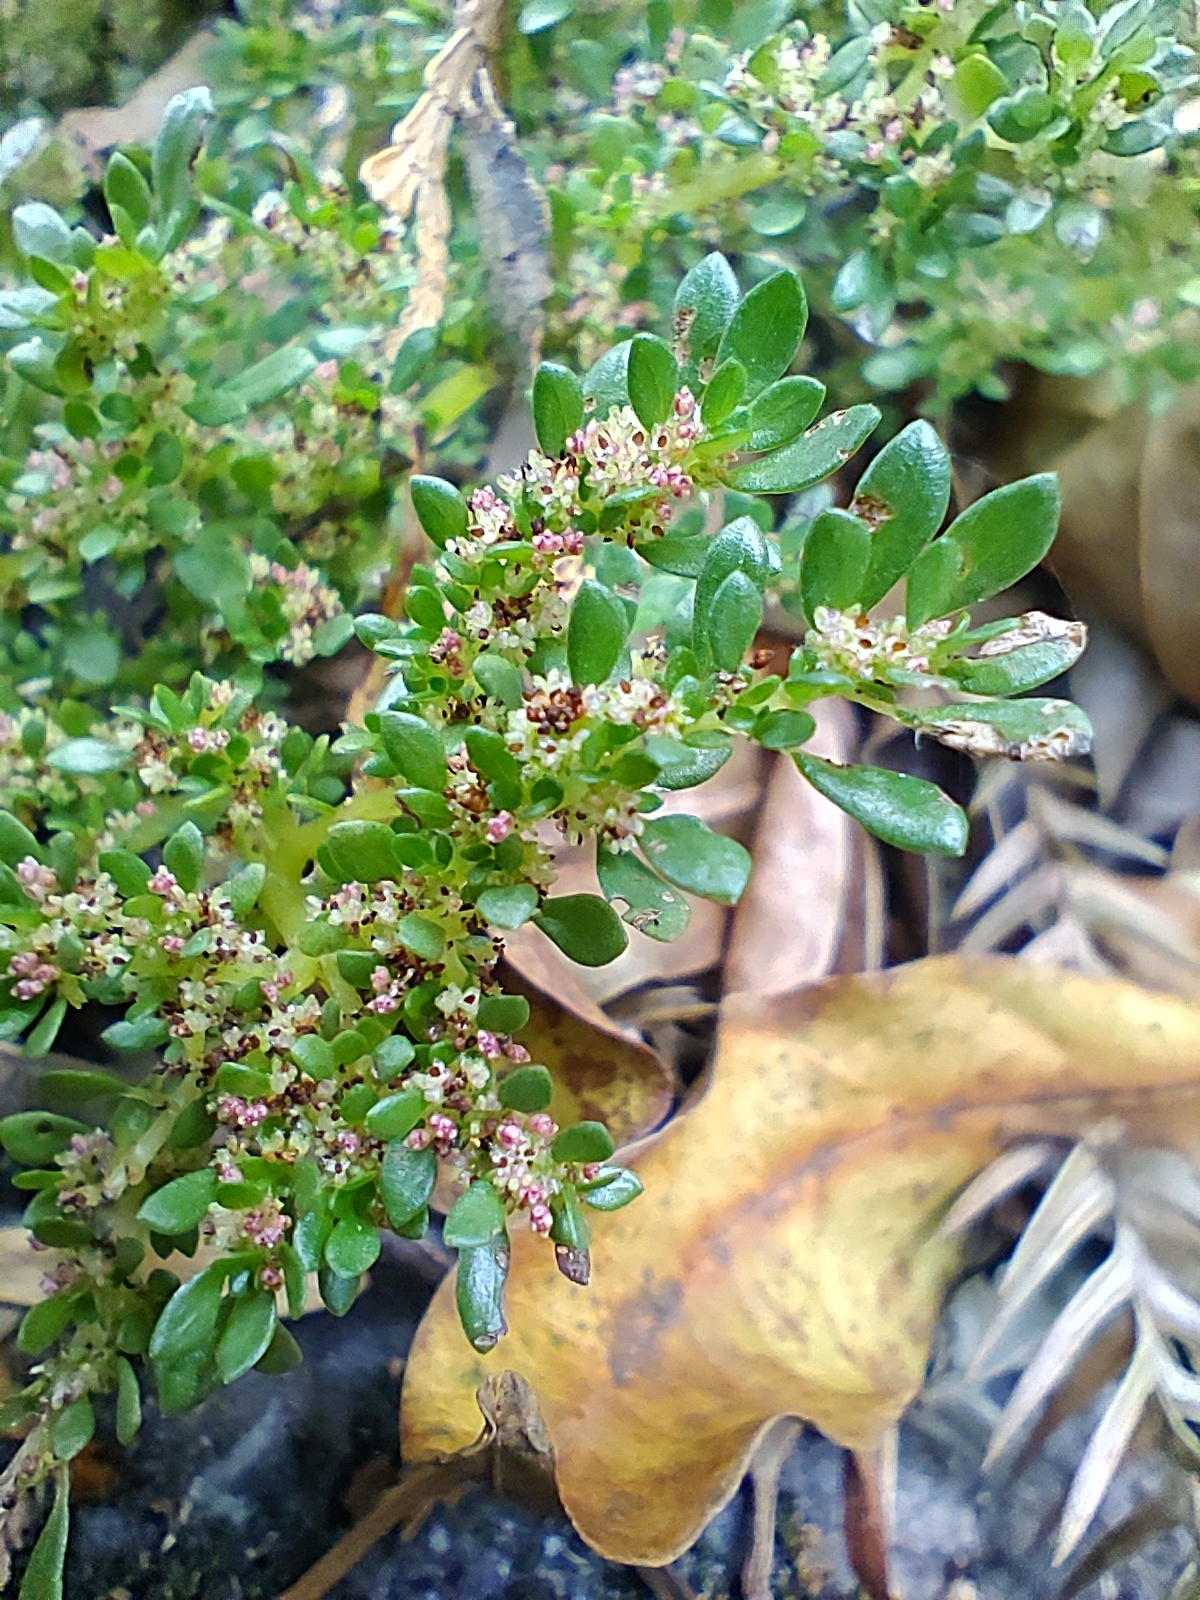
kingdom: Plantae
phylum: Tracheophyta
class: Magnoliopsida
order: Rosales
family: Urticaceae
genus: Pilea
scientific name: Pilea microphylla
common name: Artillery-plant
